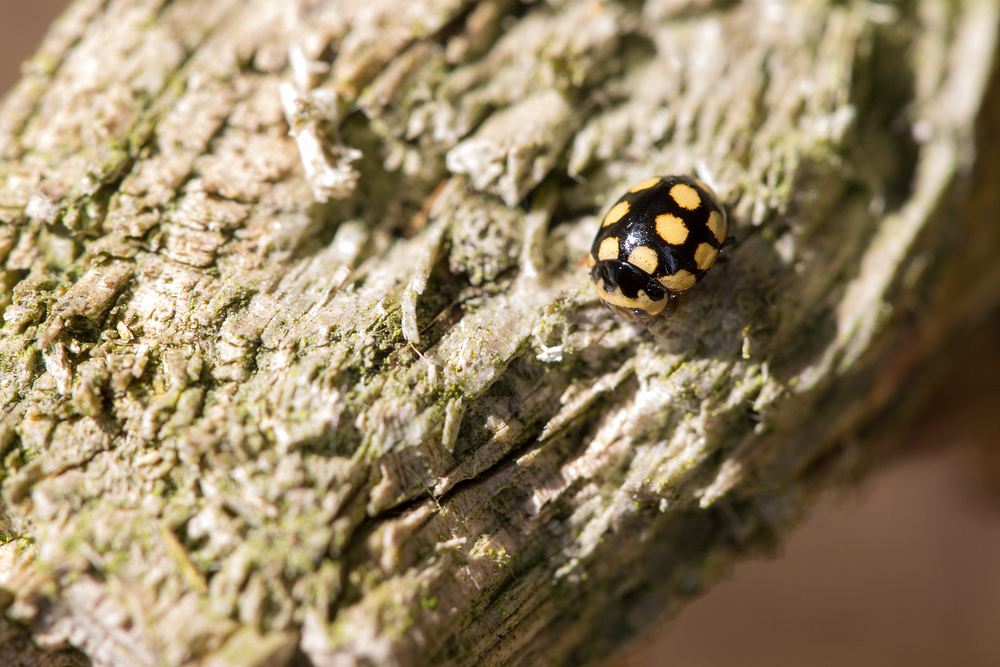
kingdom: Animalia
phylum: Arthropoda
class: Insecta
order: Coleoptera
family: Coccinellidae
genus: Coccinula
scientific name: Coccinula quatuordecimpustulata
